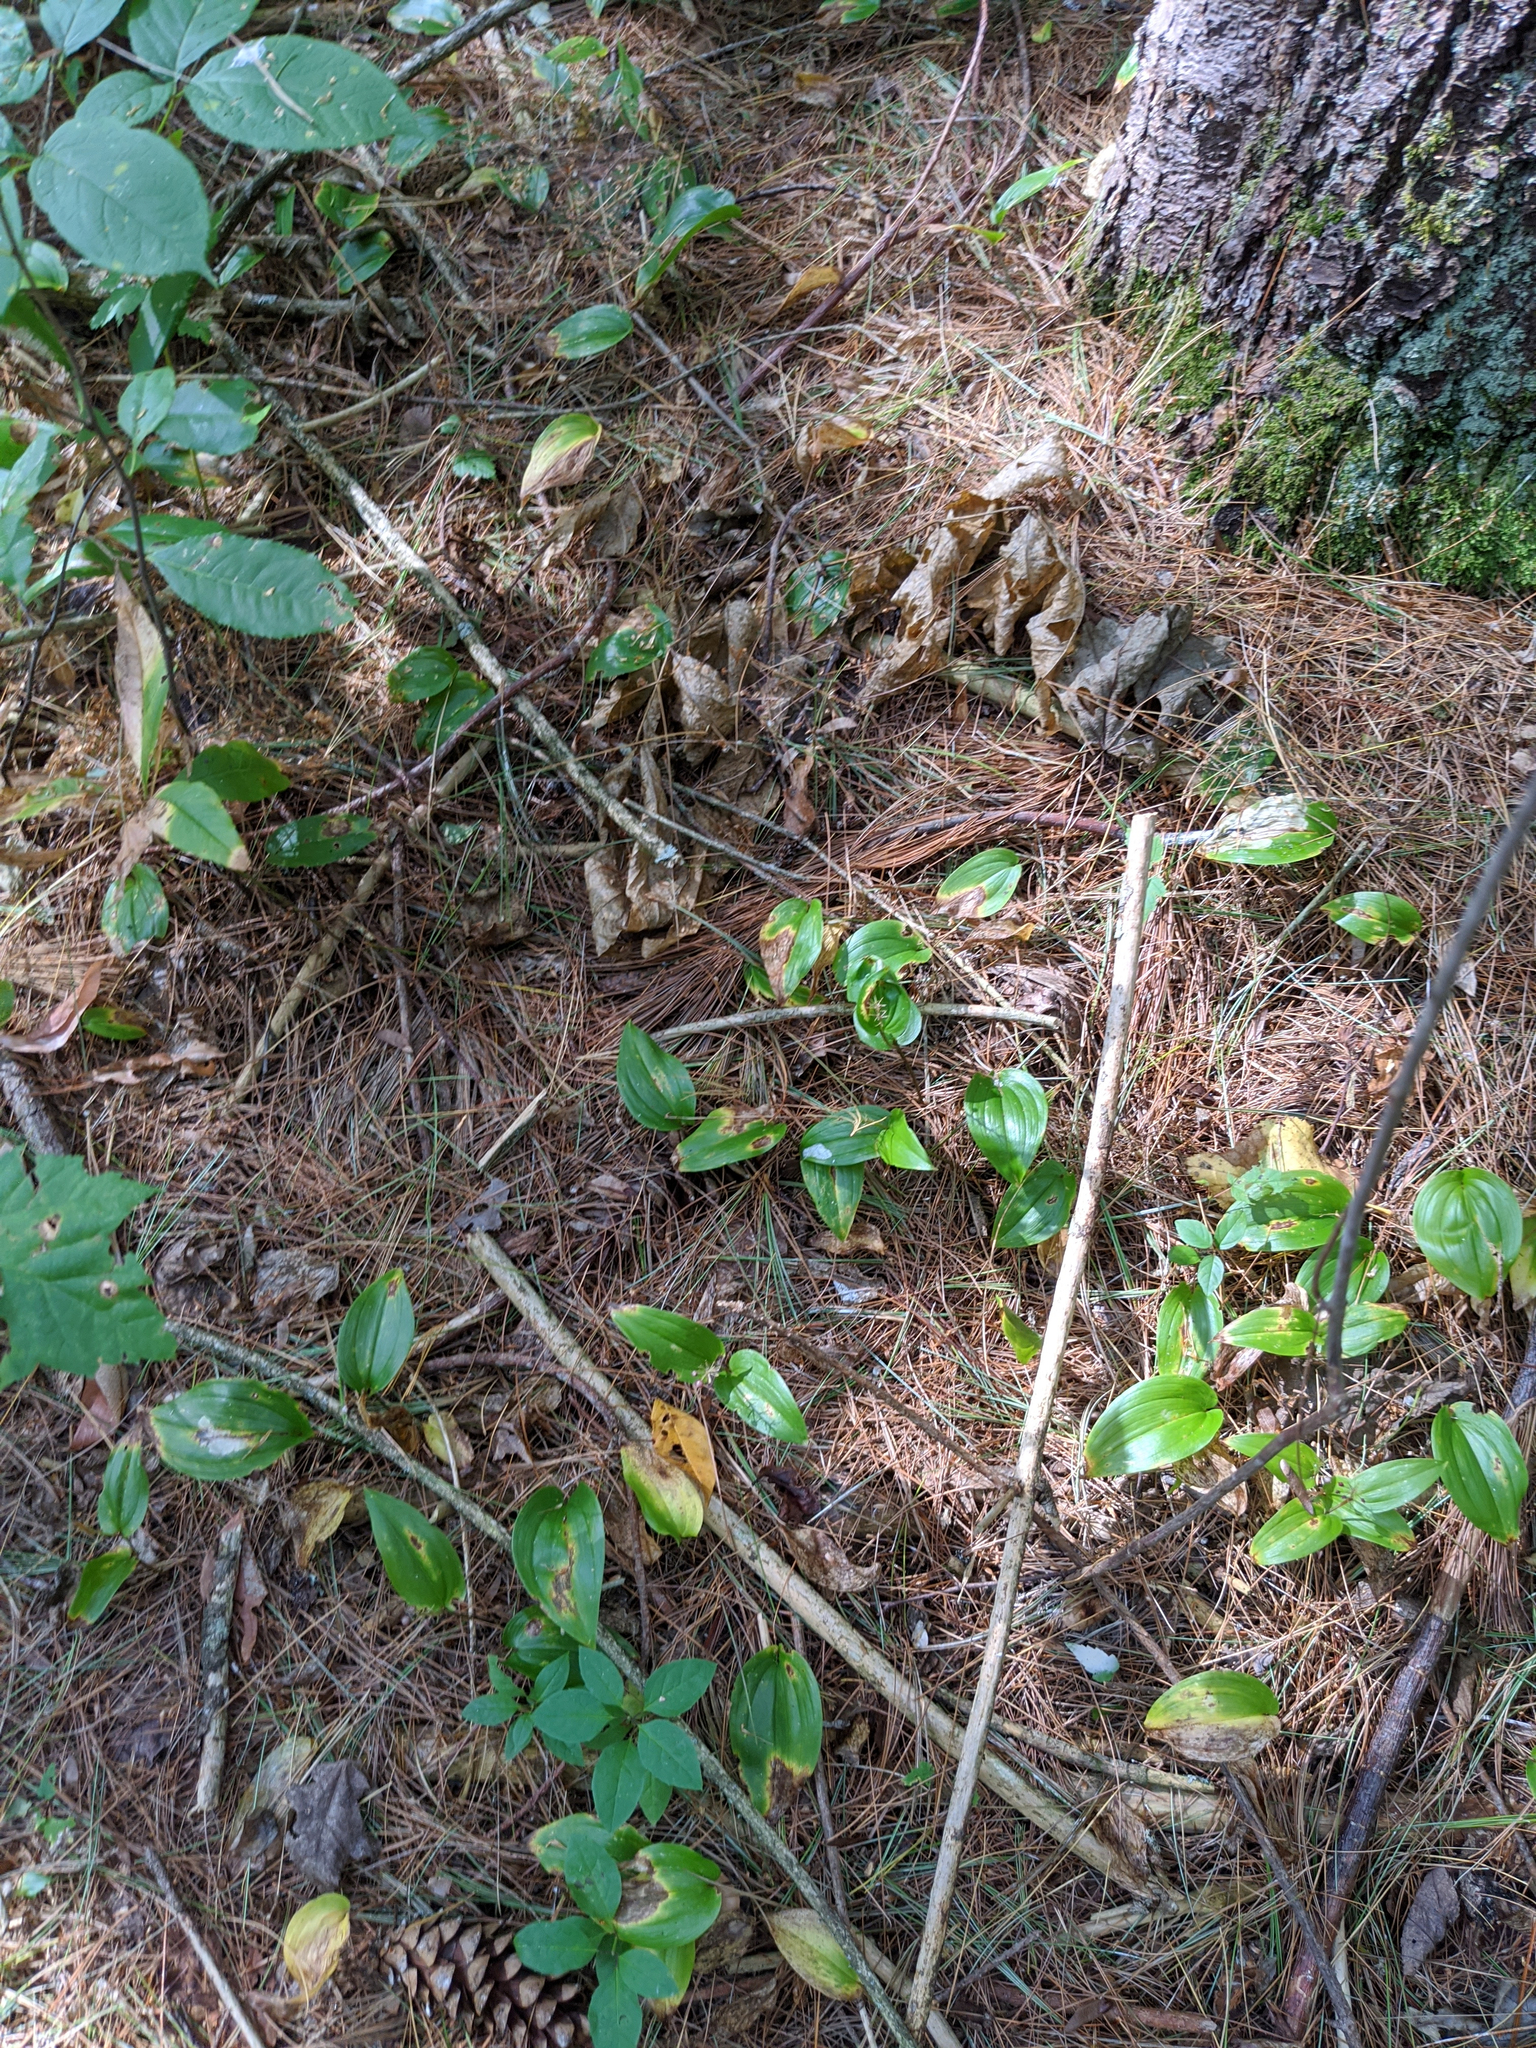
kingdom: Plantae
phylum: Tracheophyta
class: Liliopsida
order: Asparagales
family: Asparagaceae
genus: Maianthemum
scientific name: Maianthemum canadense
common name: False lily-of-the-valley
